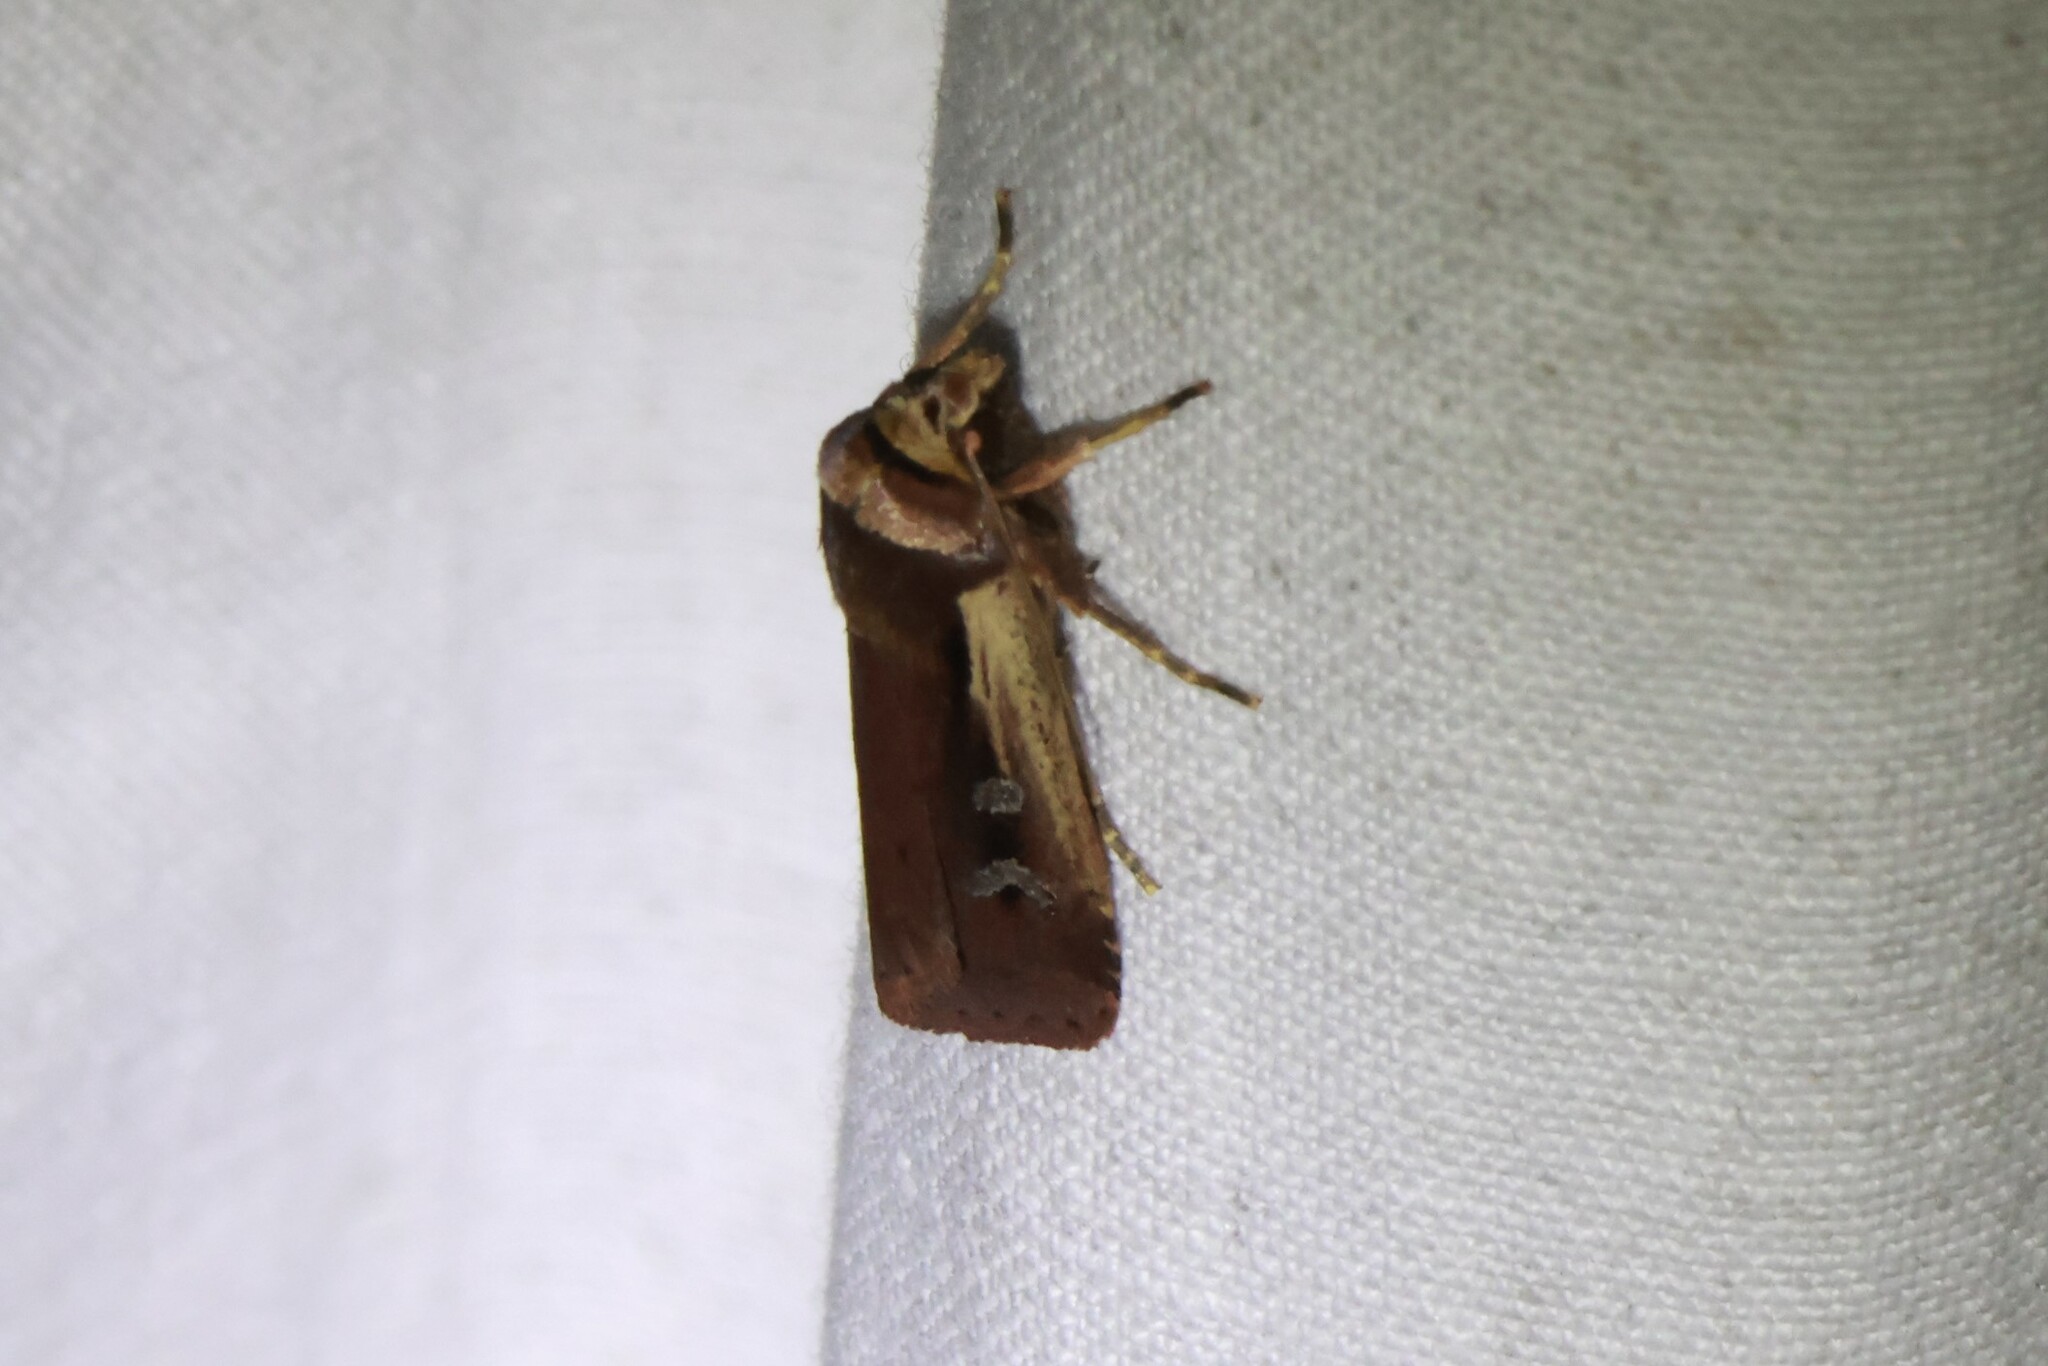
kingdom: Animalia
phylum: Arthropoda
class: Insecta
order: Lepidoptera
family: Noctuidae
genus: Ochropleura
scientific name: Ochropleura implecta
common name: Flame-shouldered dart
